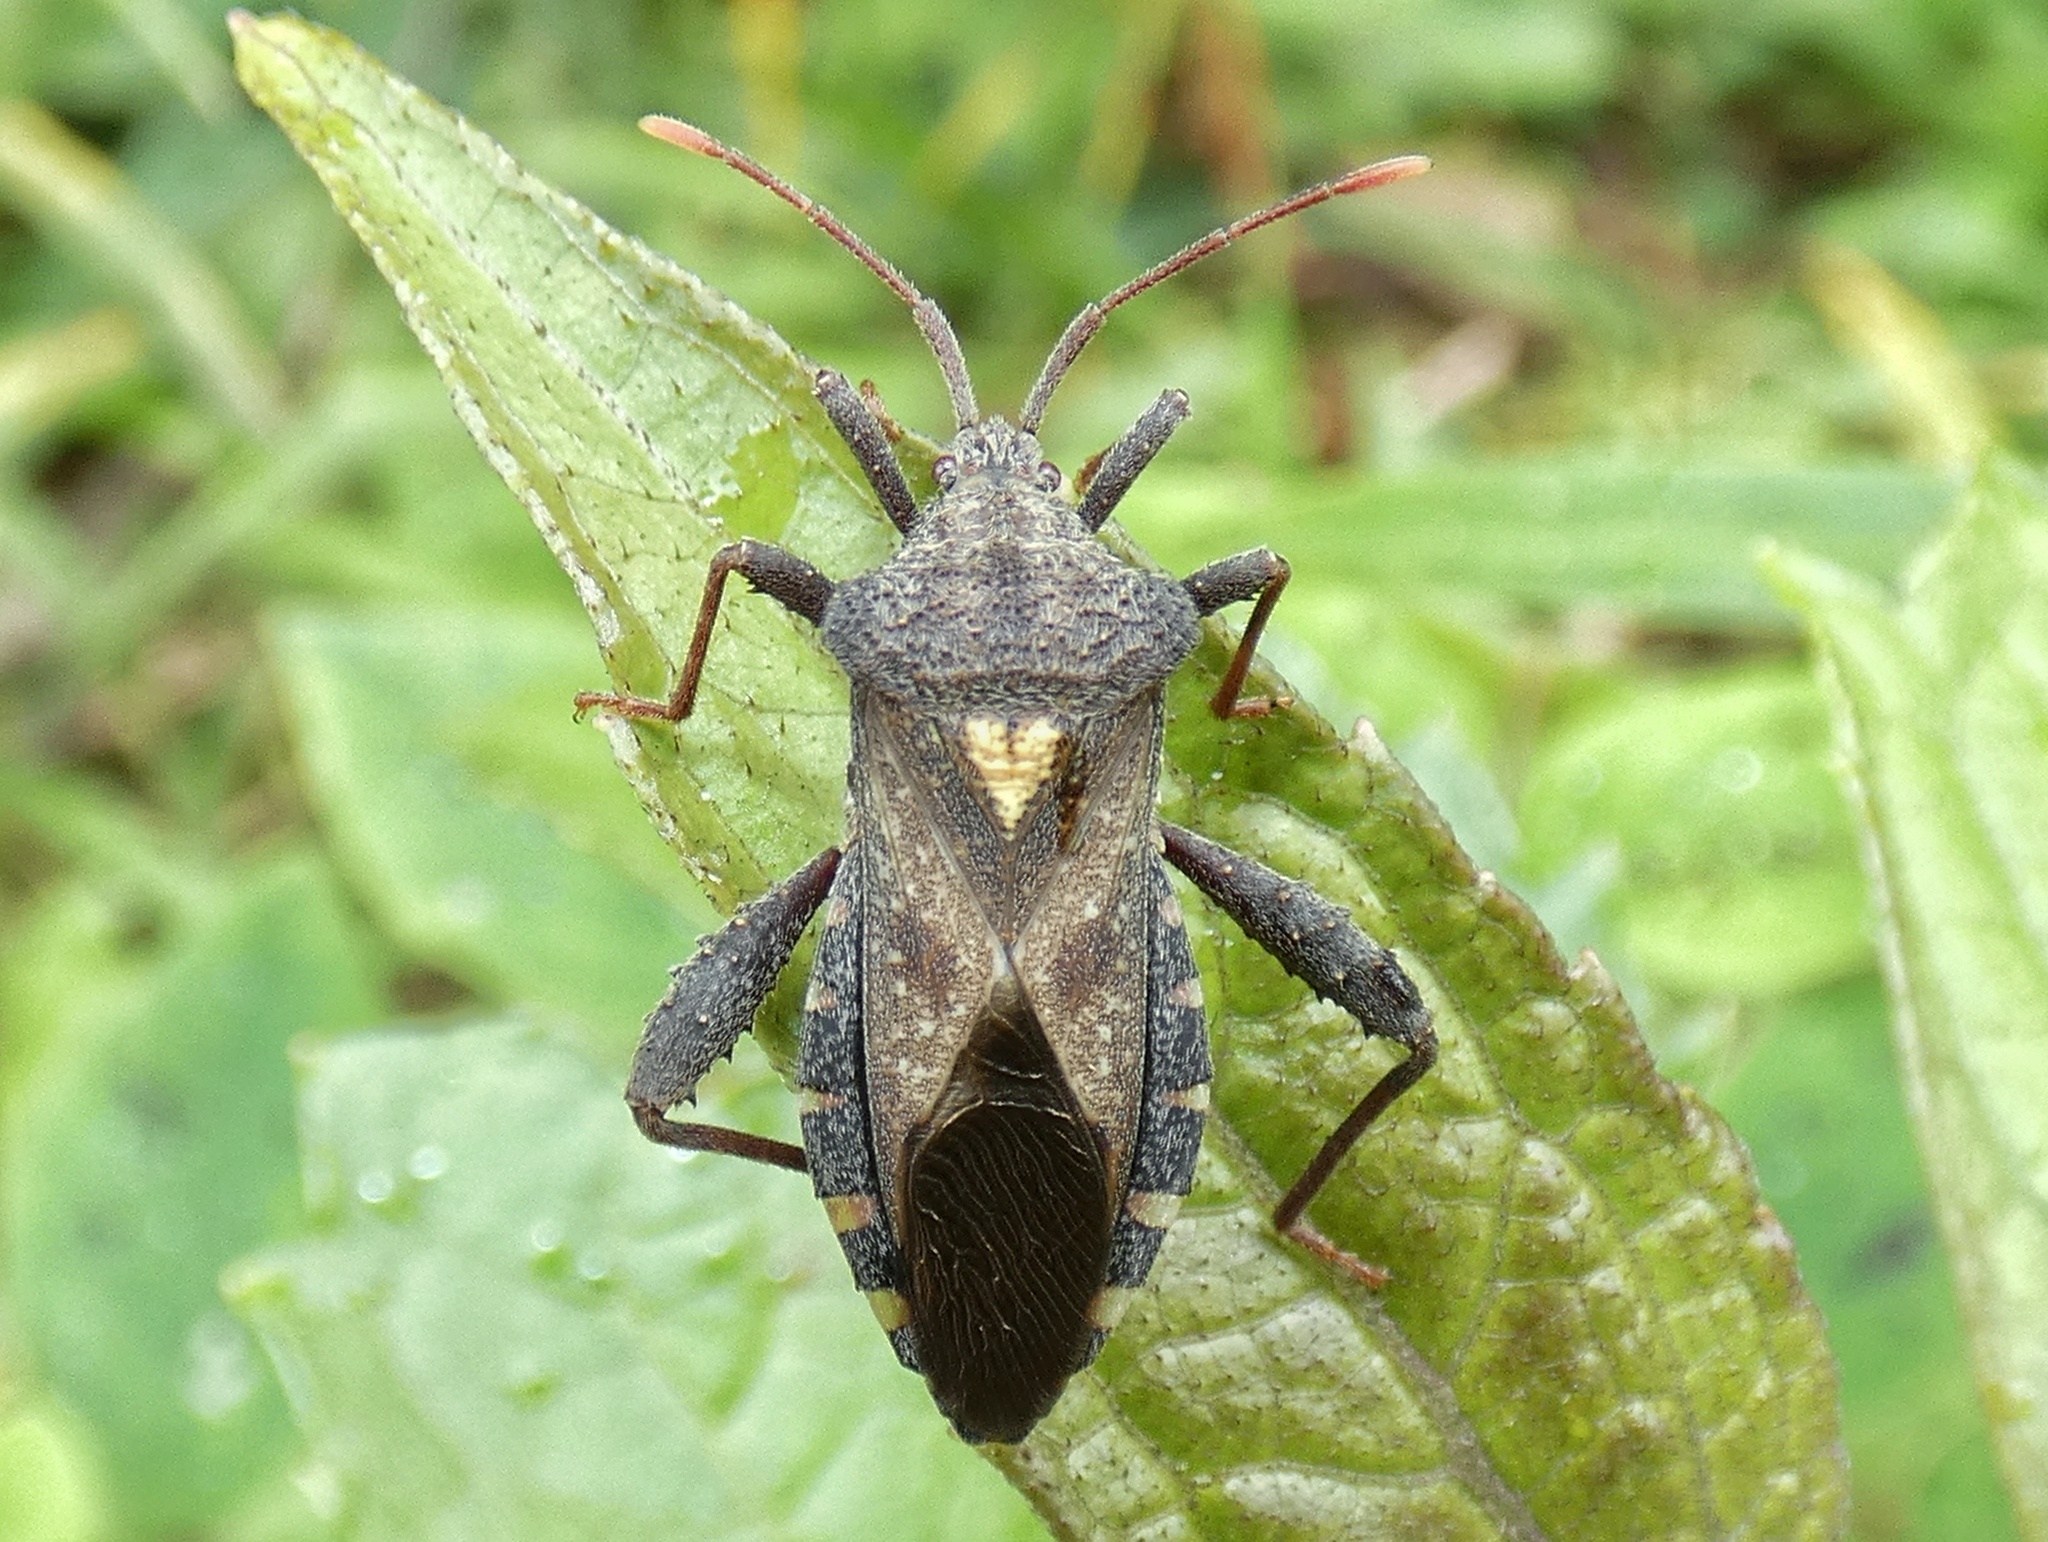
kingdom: Animalia
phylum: Arthropoda
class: Insecta
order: Hemiptera
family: Coreidae
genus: Piezogaster
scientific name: Piezogaster indecorus
